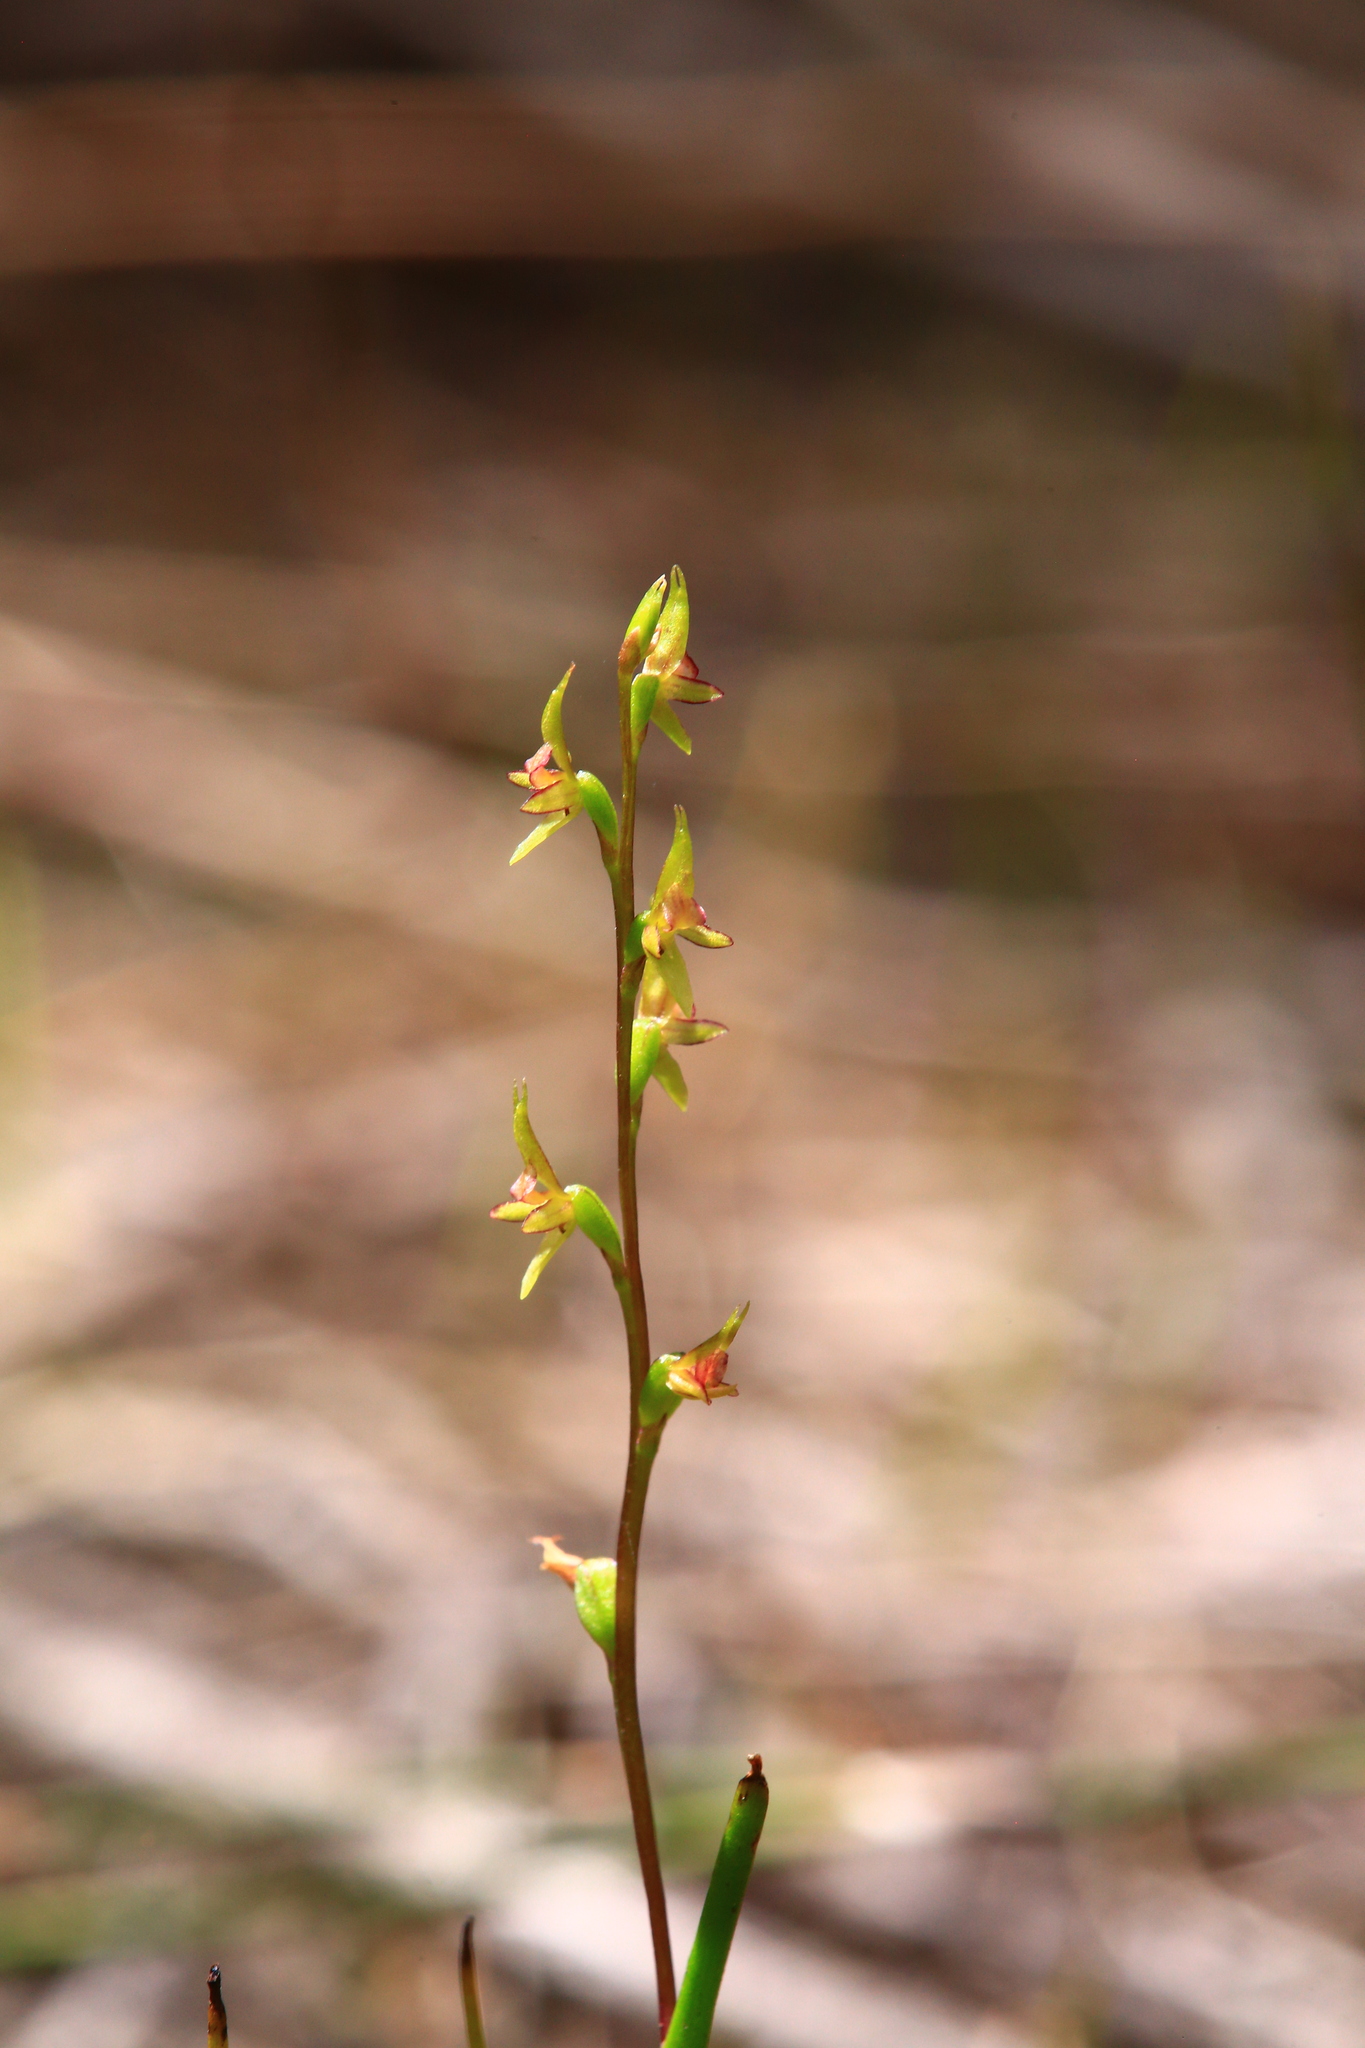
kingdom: Plantae
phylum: Tracheophyta
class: Liliopsida
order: Asparagales
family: Orchidaceae
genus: Prasophyllum
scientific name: Prasophyllum macrostachyum
